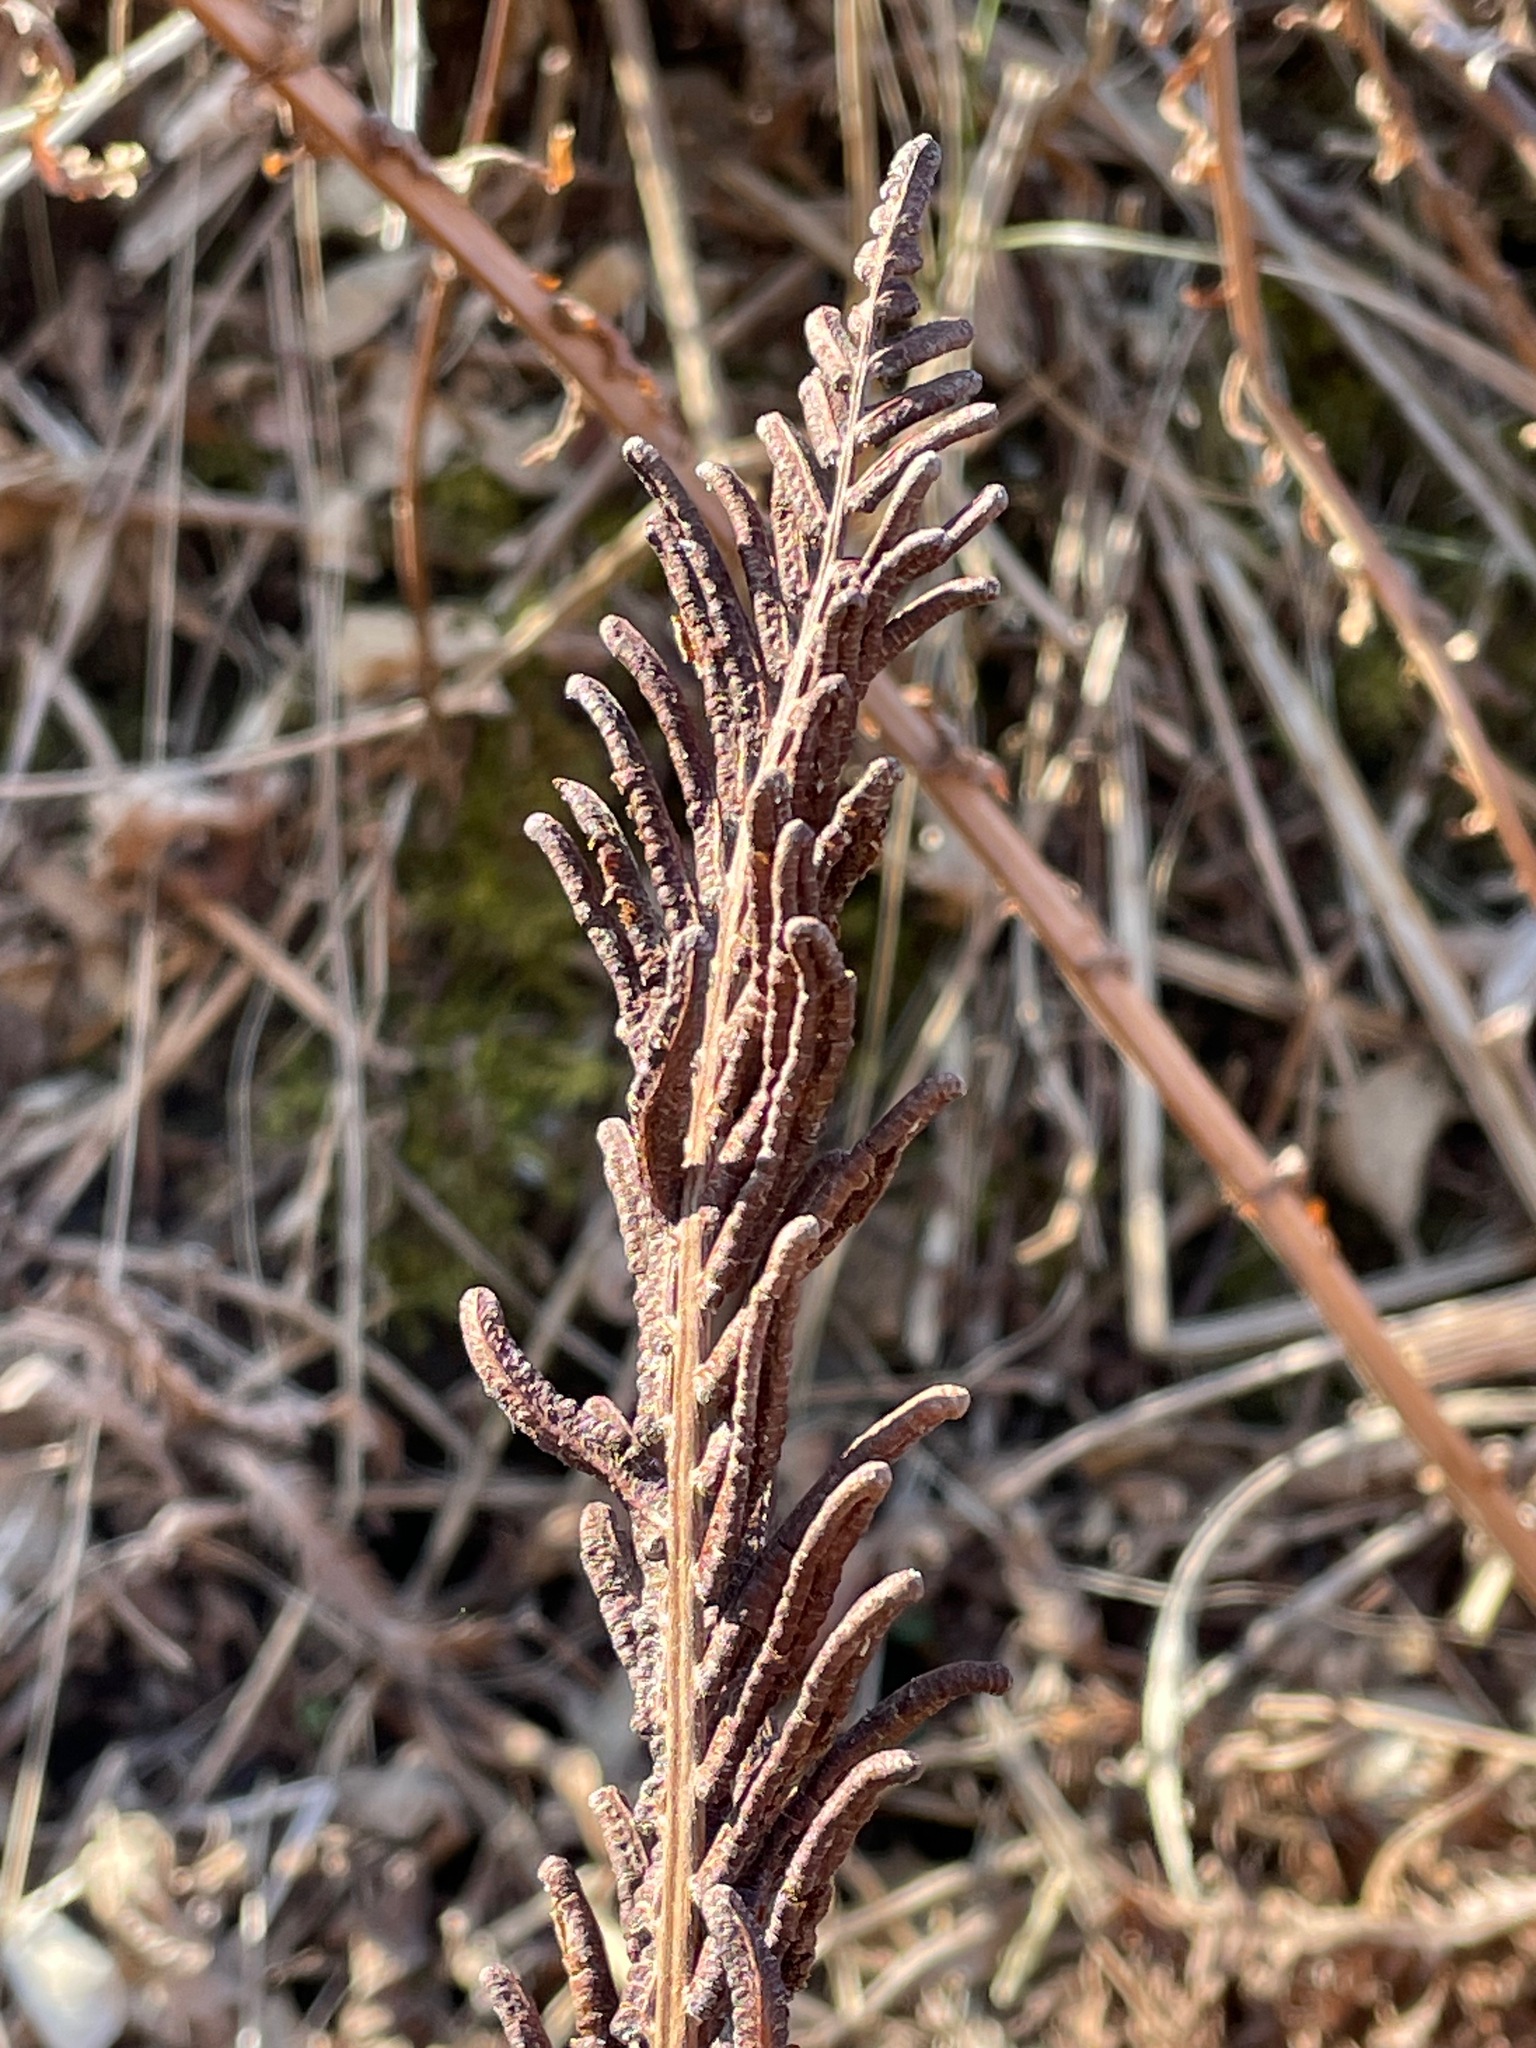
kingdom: Plantae
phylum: Tracheophyta
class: Polypodiopsida
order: Polypodiales
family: Onocleaceae
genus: Matteuccia
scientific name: Matteuccia struthiopteris
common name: Ostrich fern
